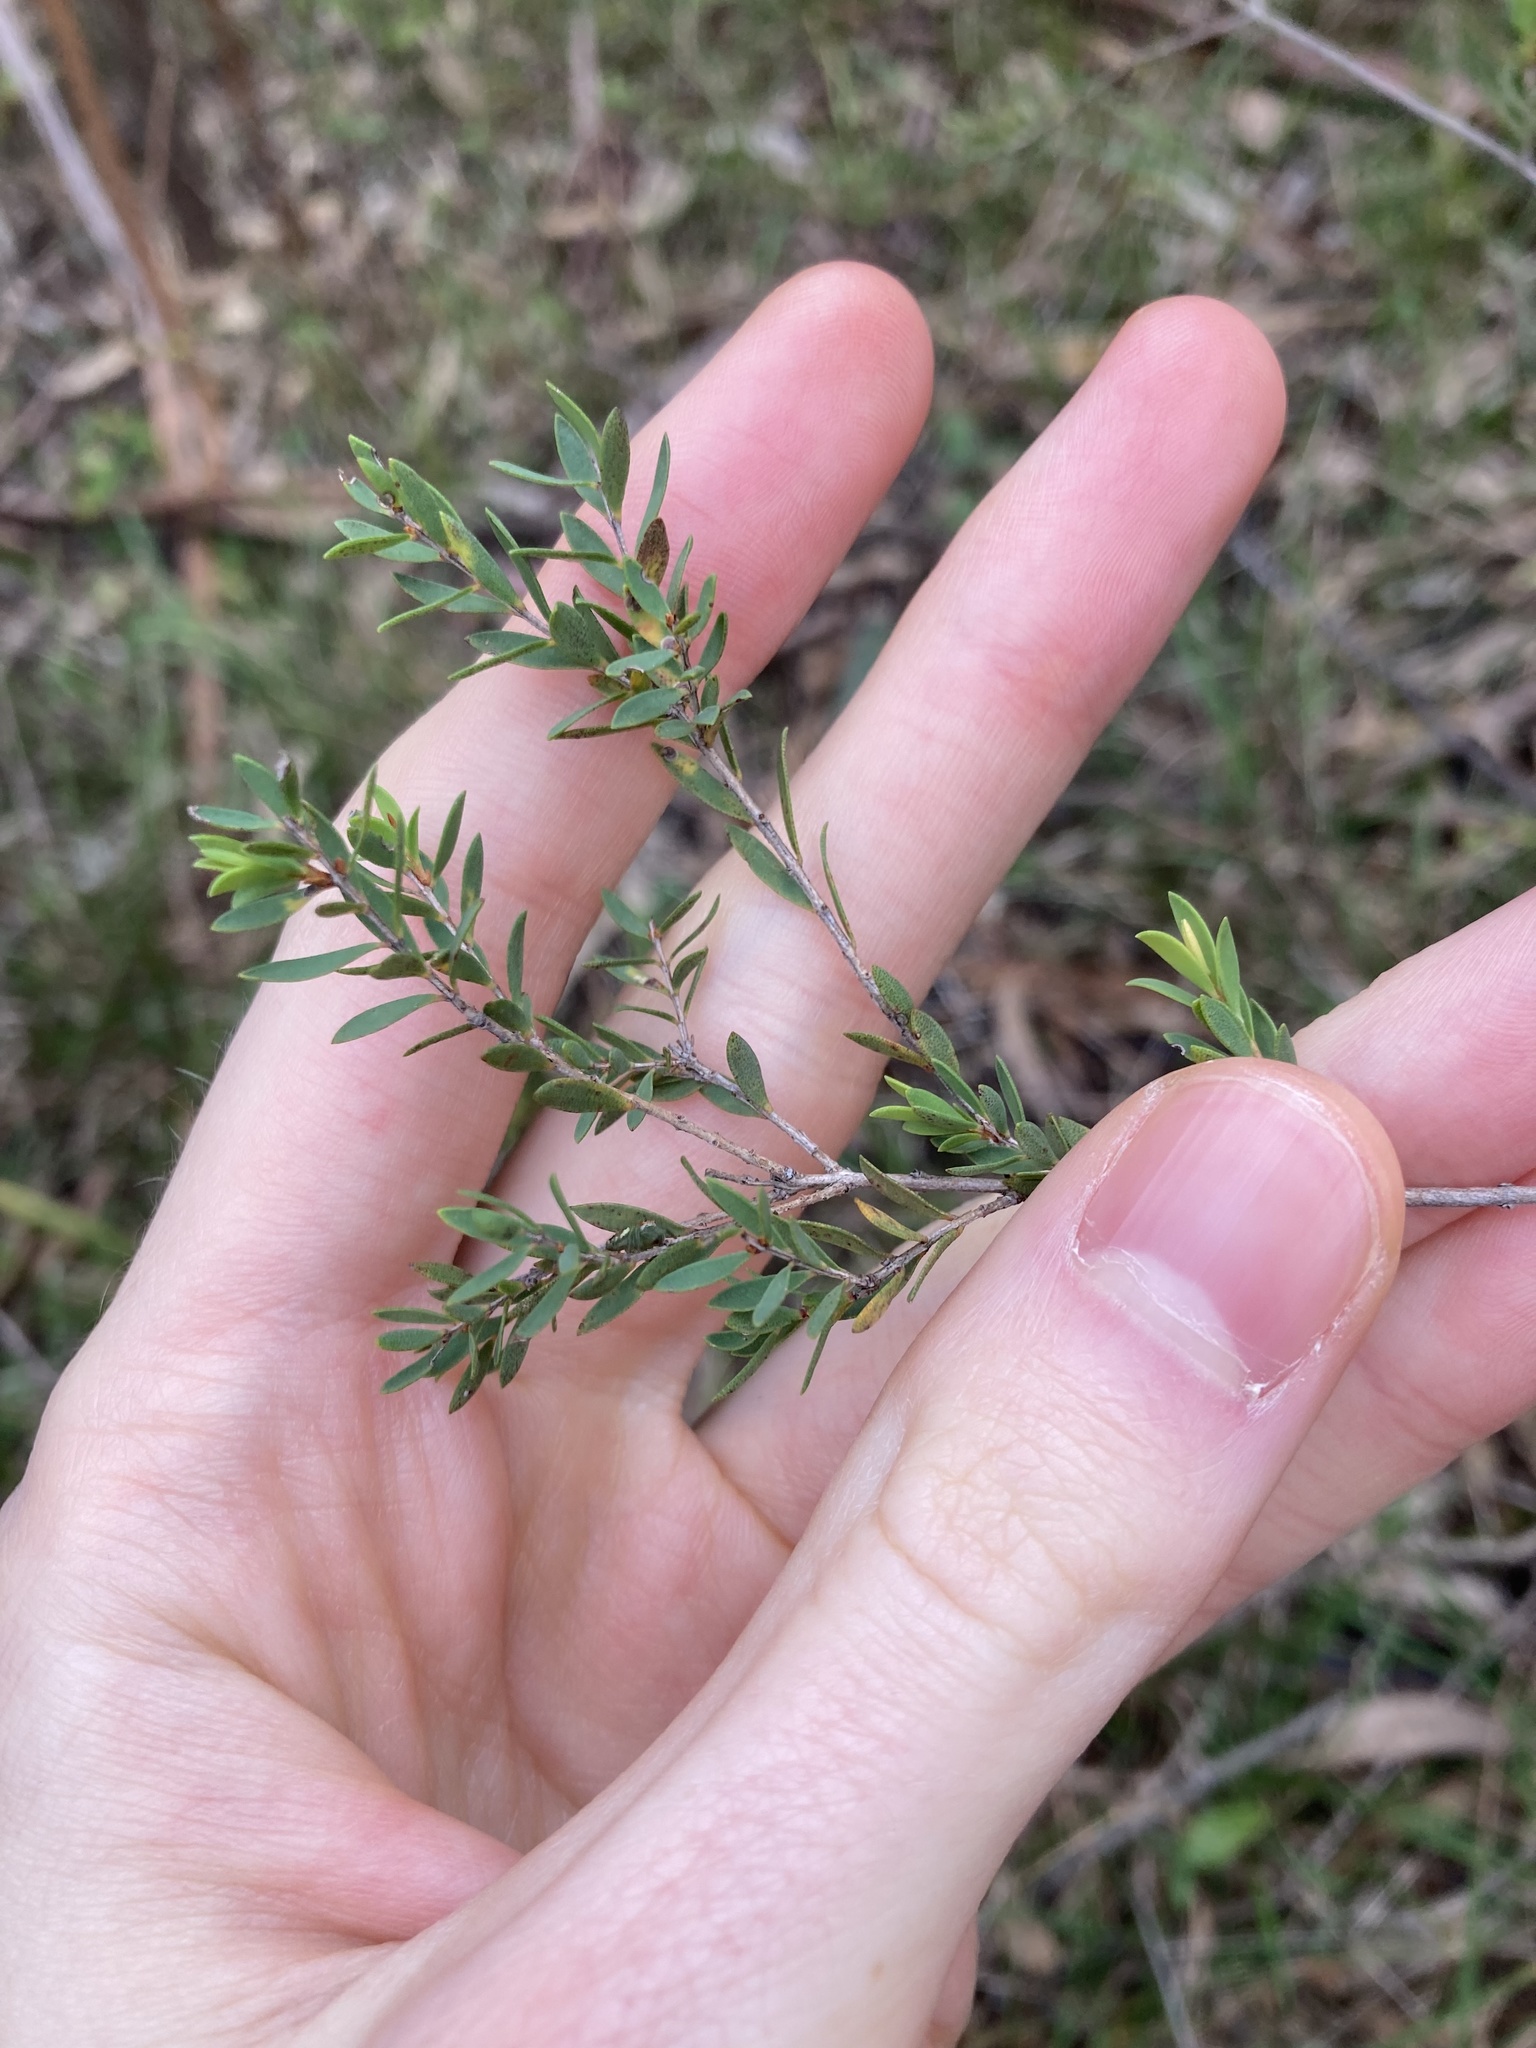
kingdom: Plantae
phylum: Tracheophyta
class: Magnoliopsida
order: Myrtales
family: Myrtaceae
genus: Melaleuca
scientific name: Melaleuca thymifolia
